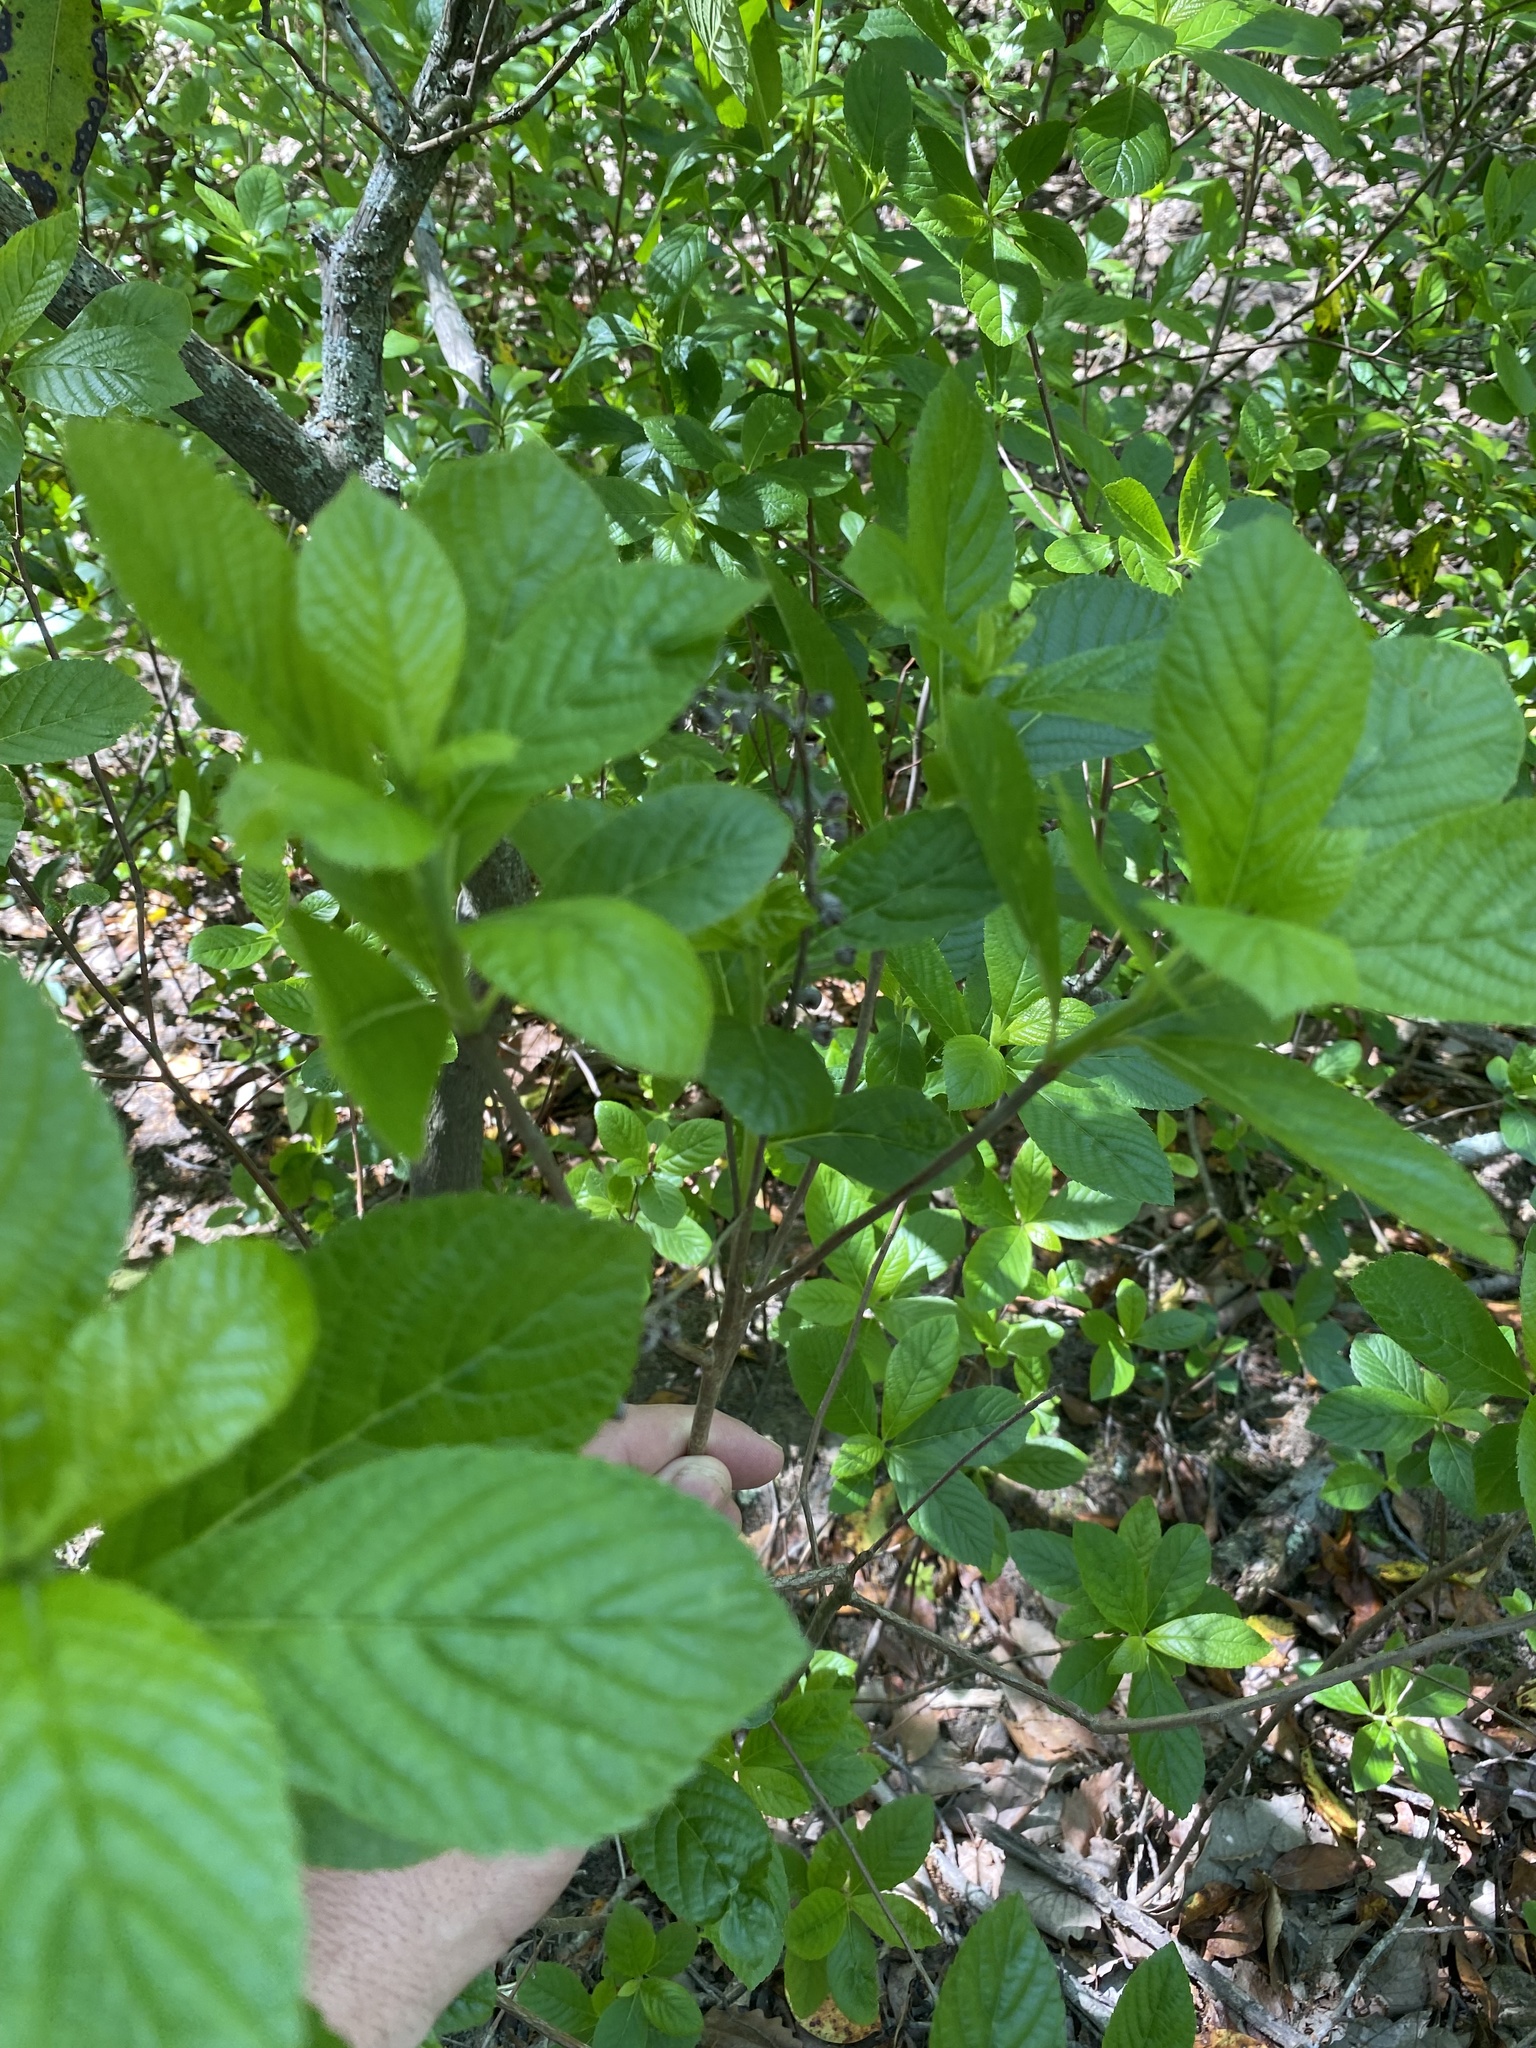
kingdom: Plantae
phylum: Tracheophyta
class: Magnoliopsida
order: Ericales
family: Clethraceae
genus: Clethra
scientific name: Clethra alnifolia
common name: Sweet pepperbush
